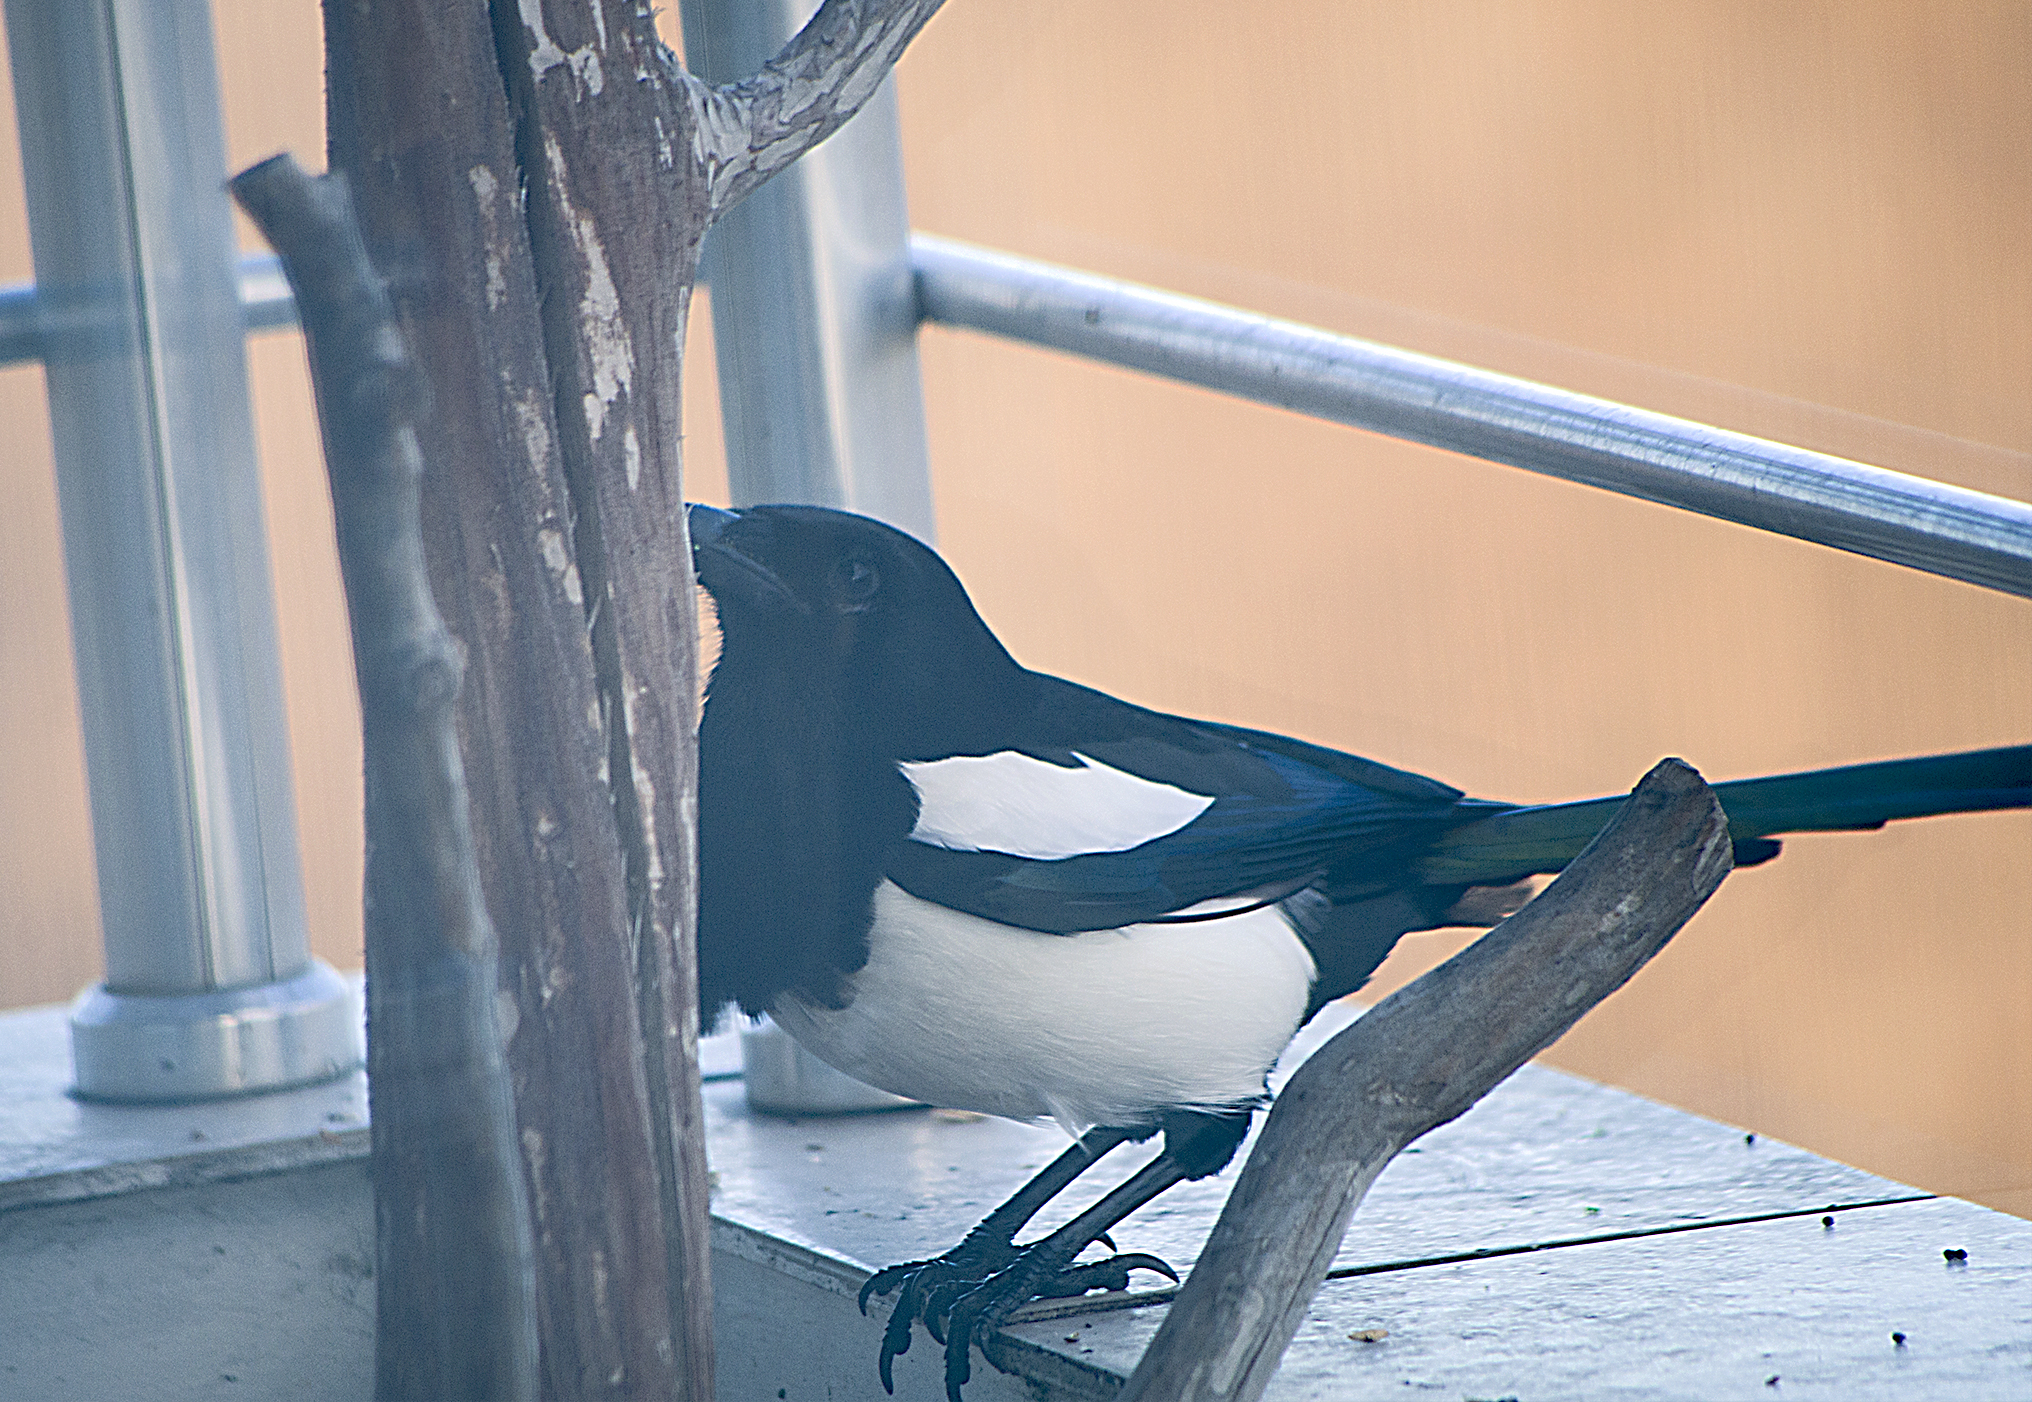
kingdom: Animalia
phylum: Chordata
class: Aves
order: Passeriformes
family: Corvidae
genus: Pica
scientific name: Pica pica
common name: Eurasian magpie
